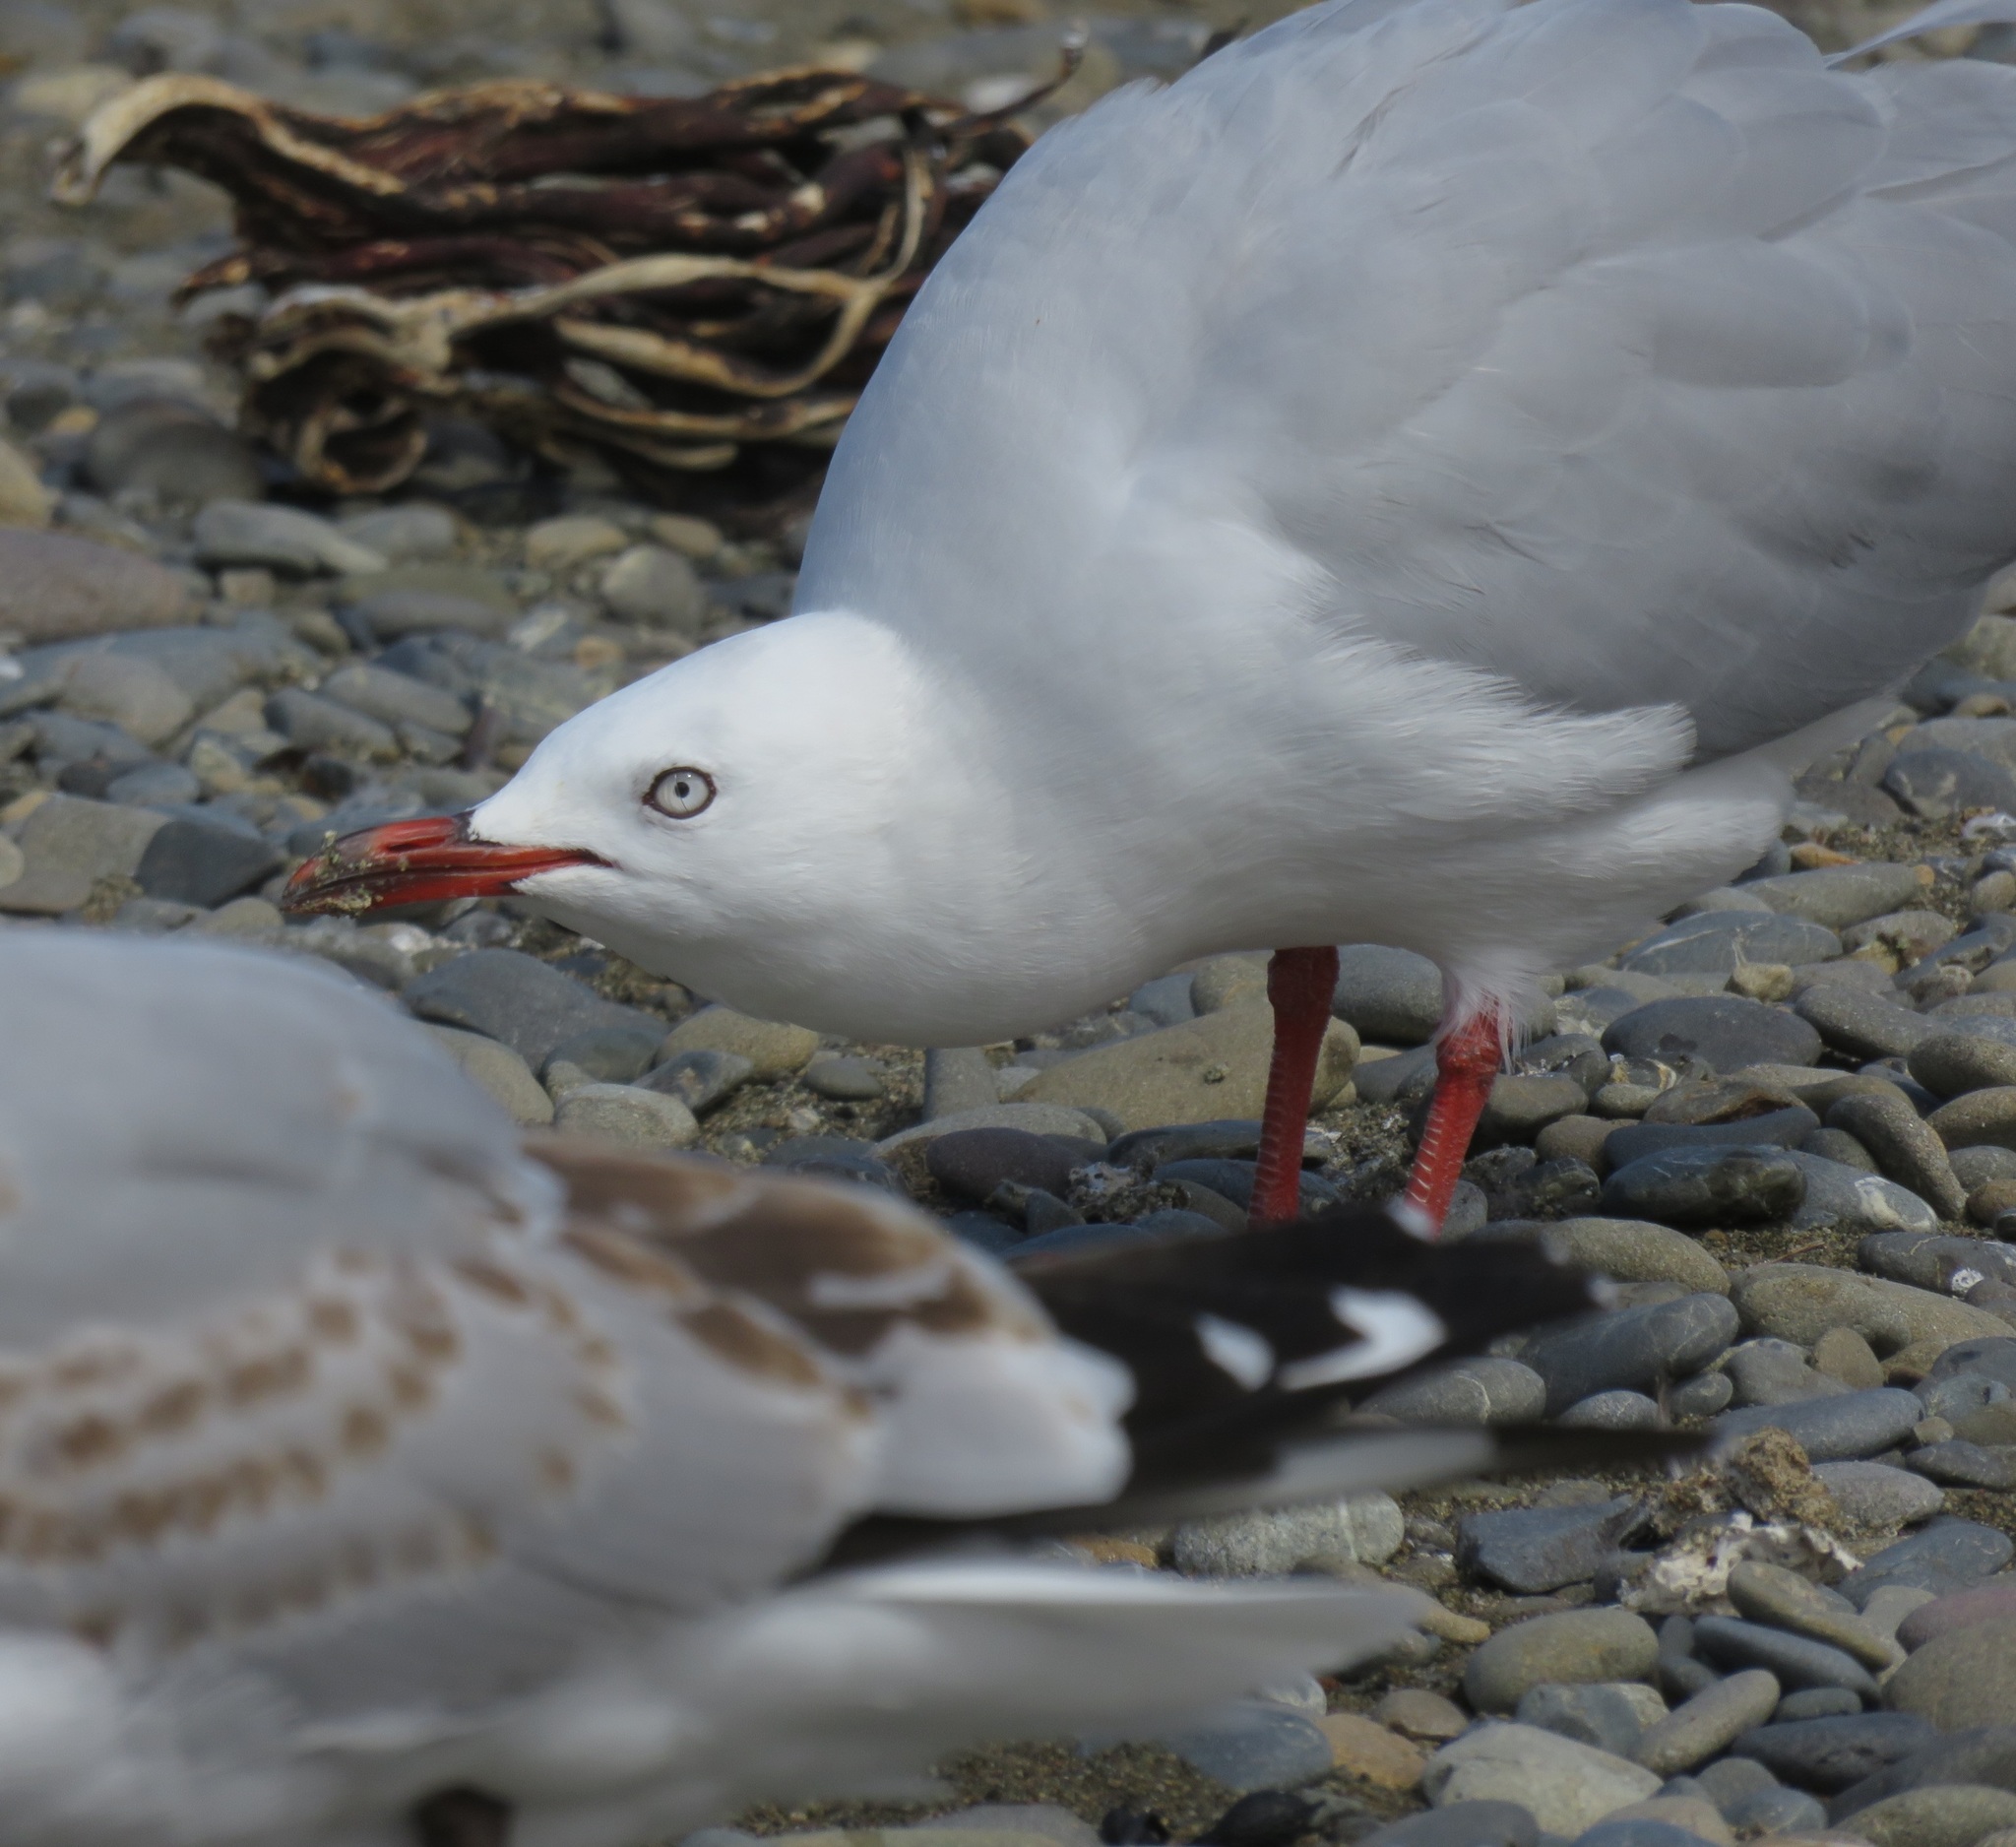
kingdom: Animalia
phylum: Chordata
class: Aves
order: Charadriiformes
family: Laridae
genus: Chroicocephalus
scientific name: Chroicocephalus novaehollandiae
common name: Silver gull
